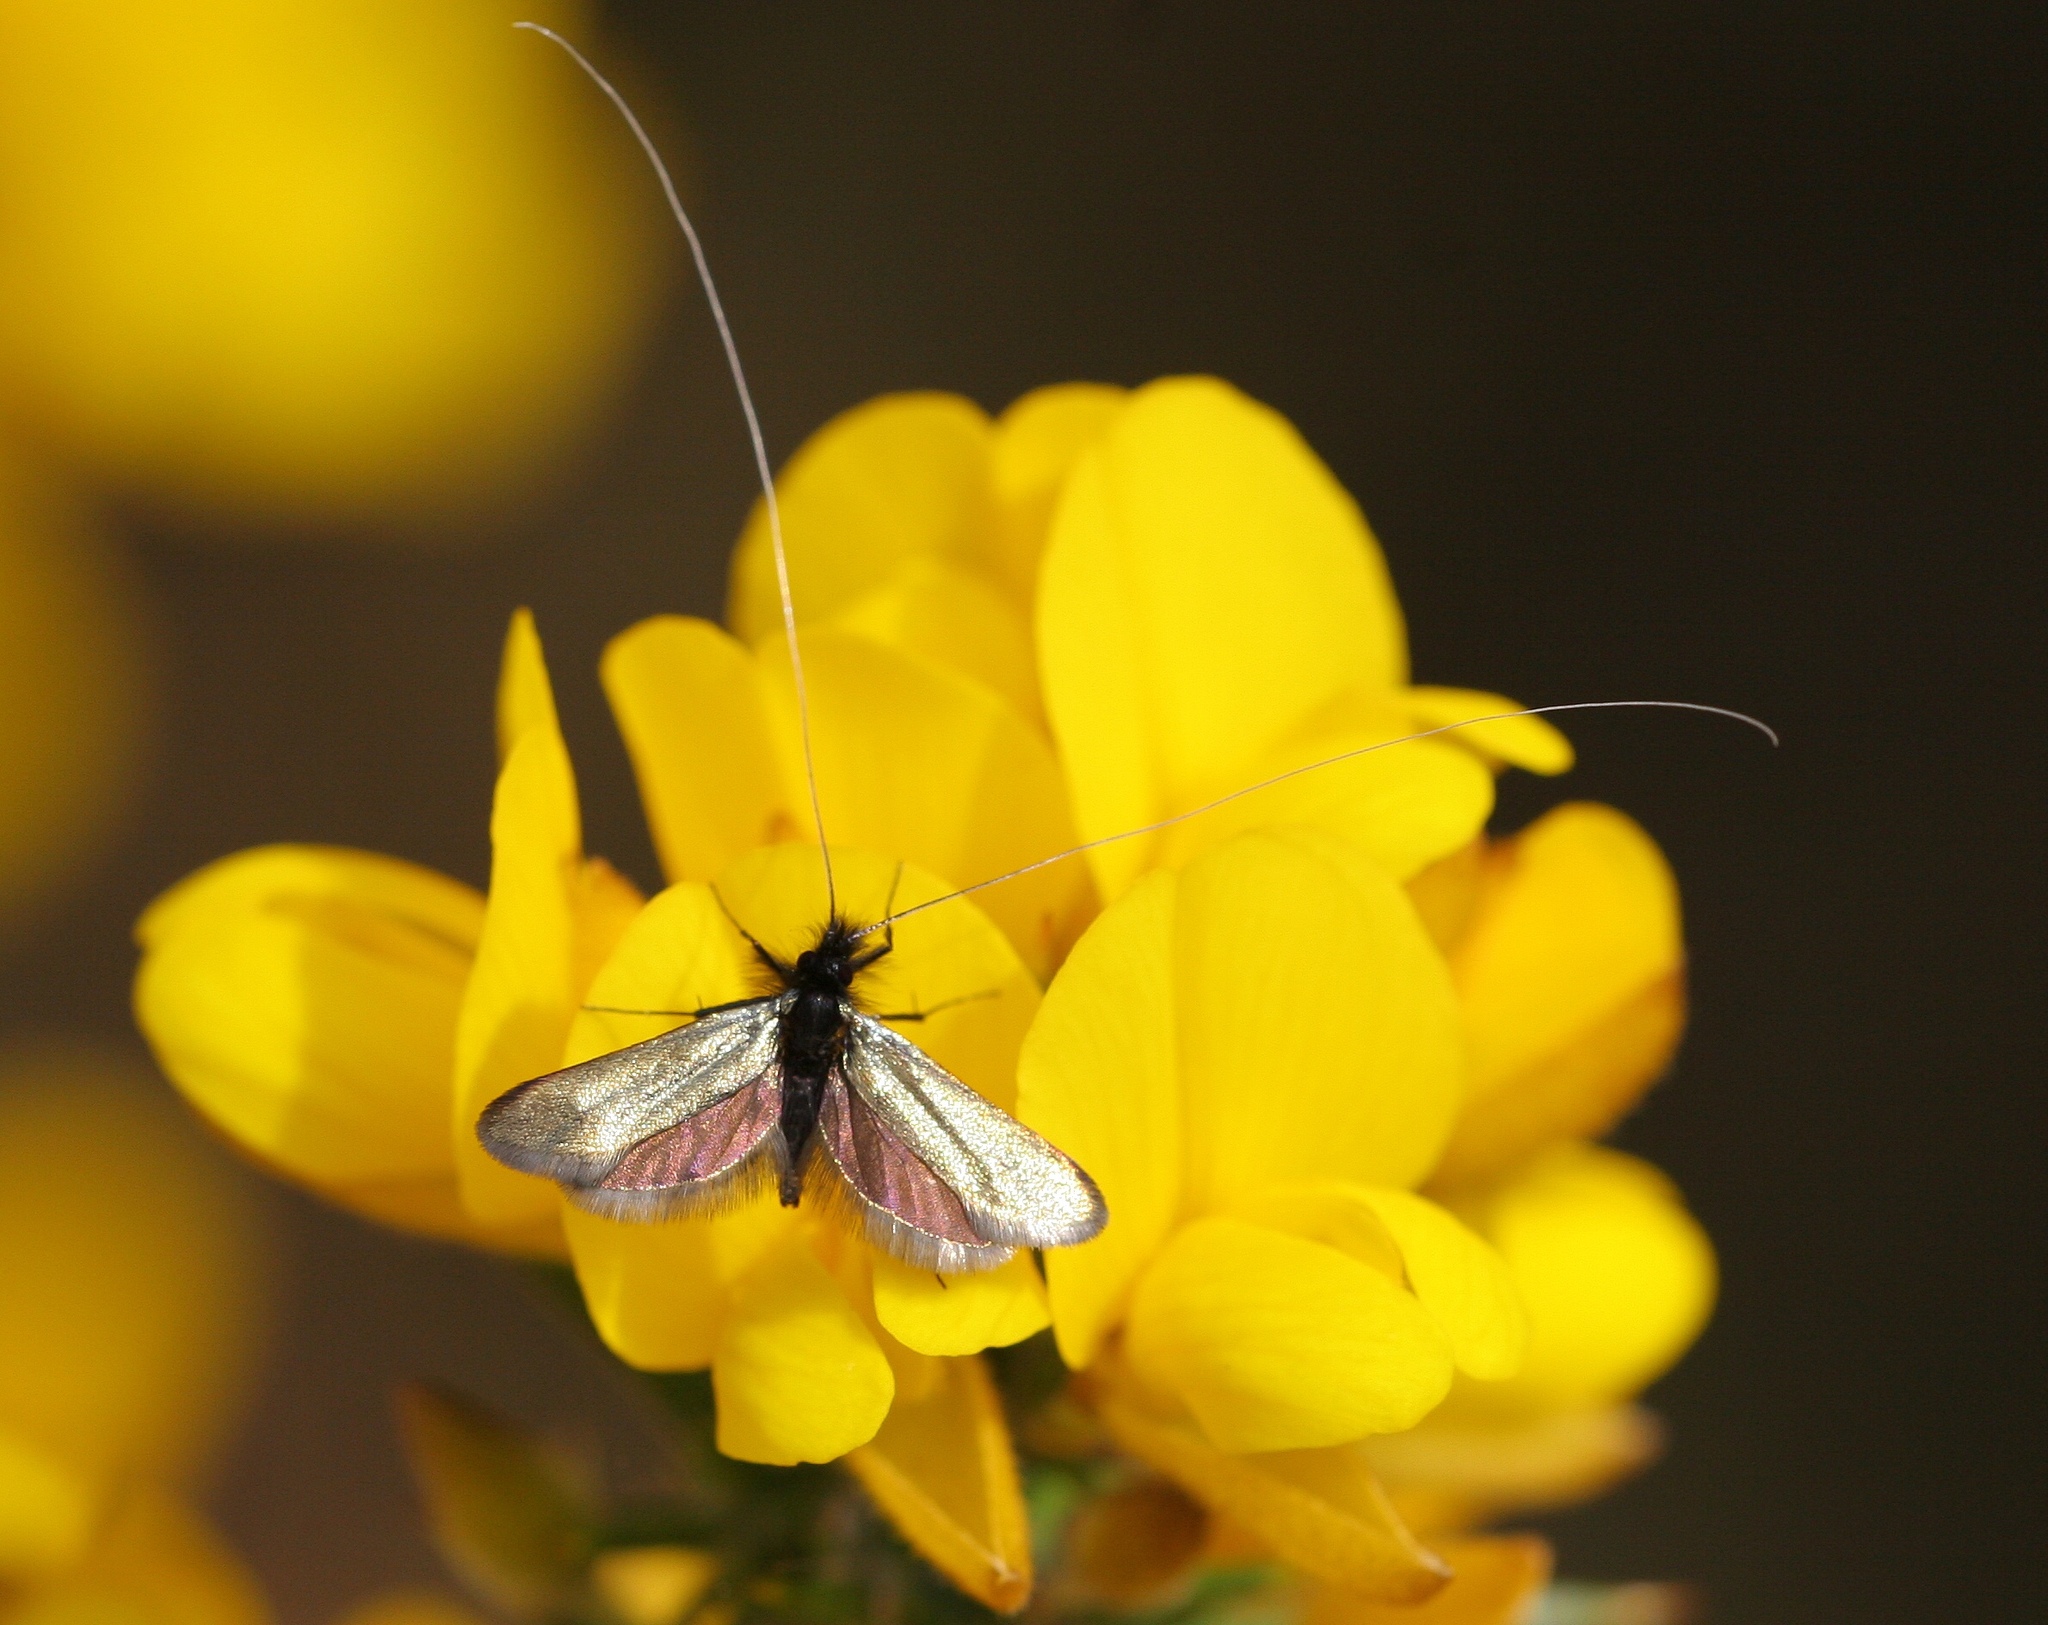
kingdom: Animalia
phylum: Arthropoda
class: Insecta
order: Lepidoptera
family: Adelidae
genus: Adela
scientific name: Adela viridella
